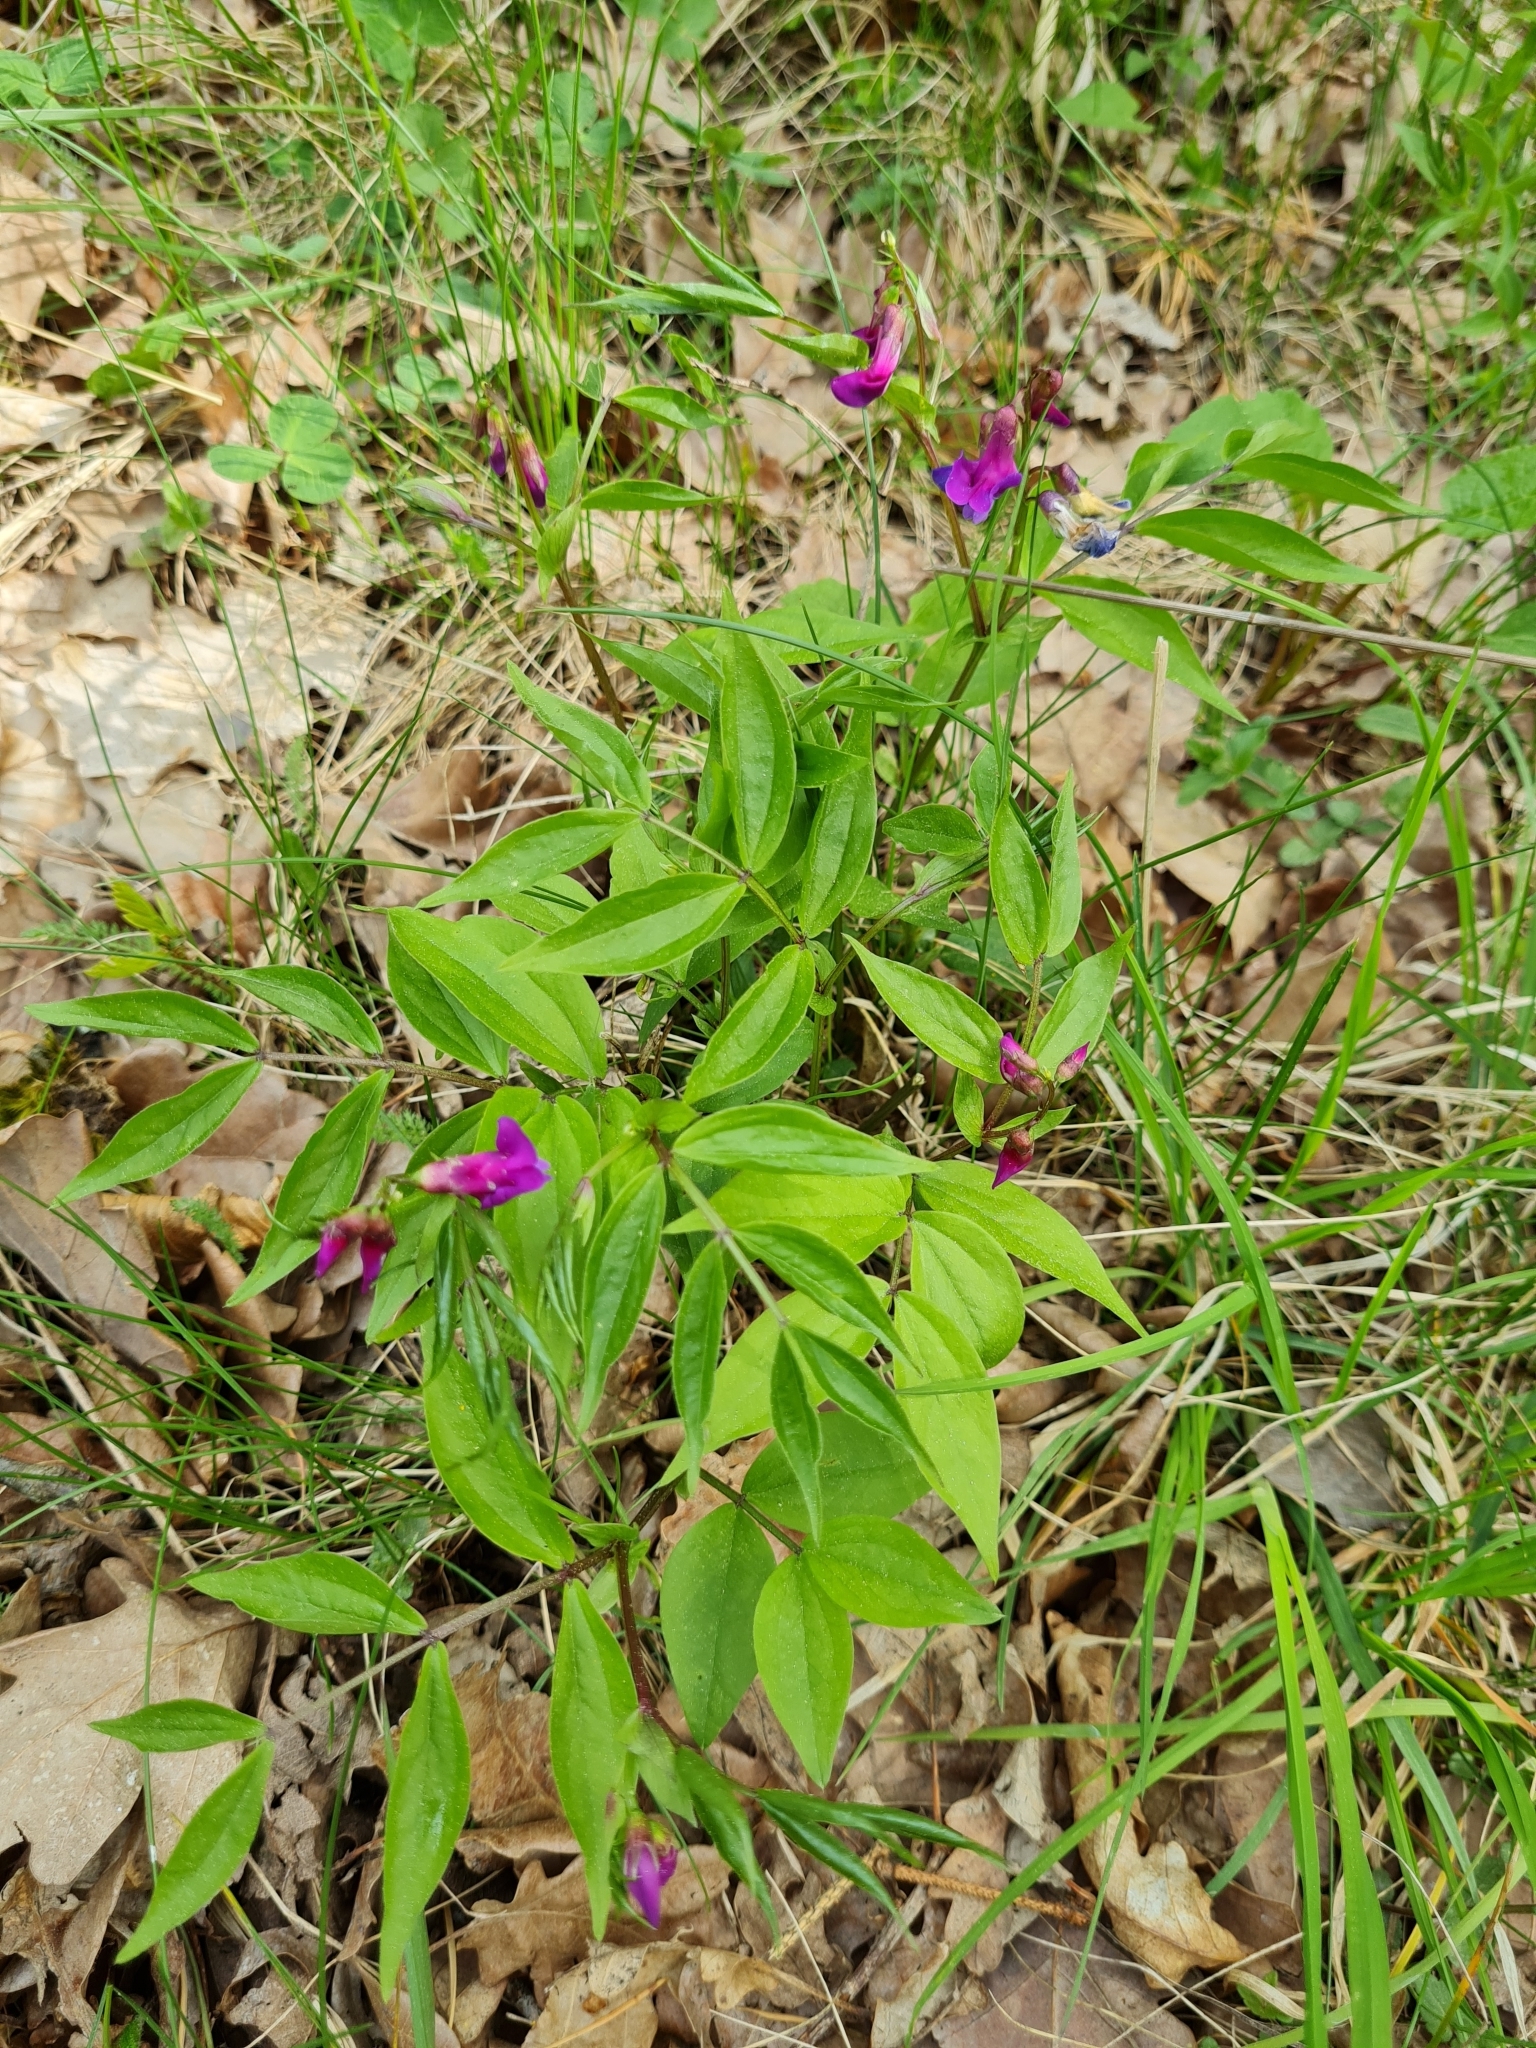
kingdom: Plantae
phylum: Tracheophyta
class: Magnoliopsida
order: Fabales
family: Fabaceae
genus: Lathyrus
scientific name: Lathyrus vernus
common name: Spring pea
